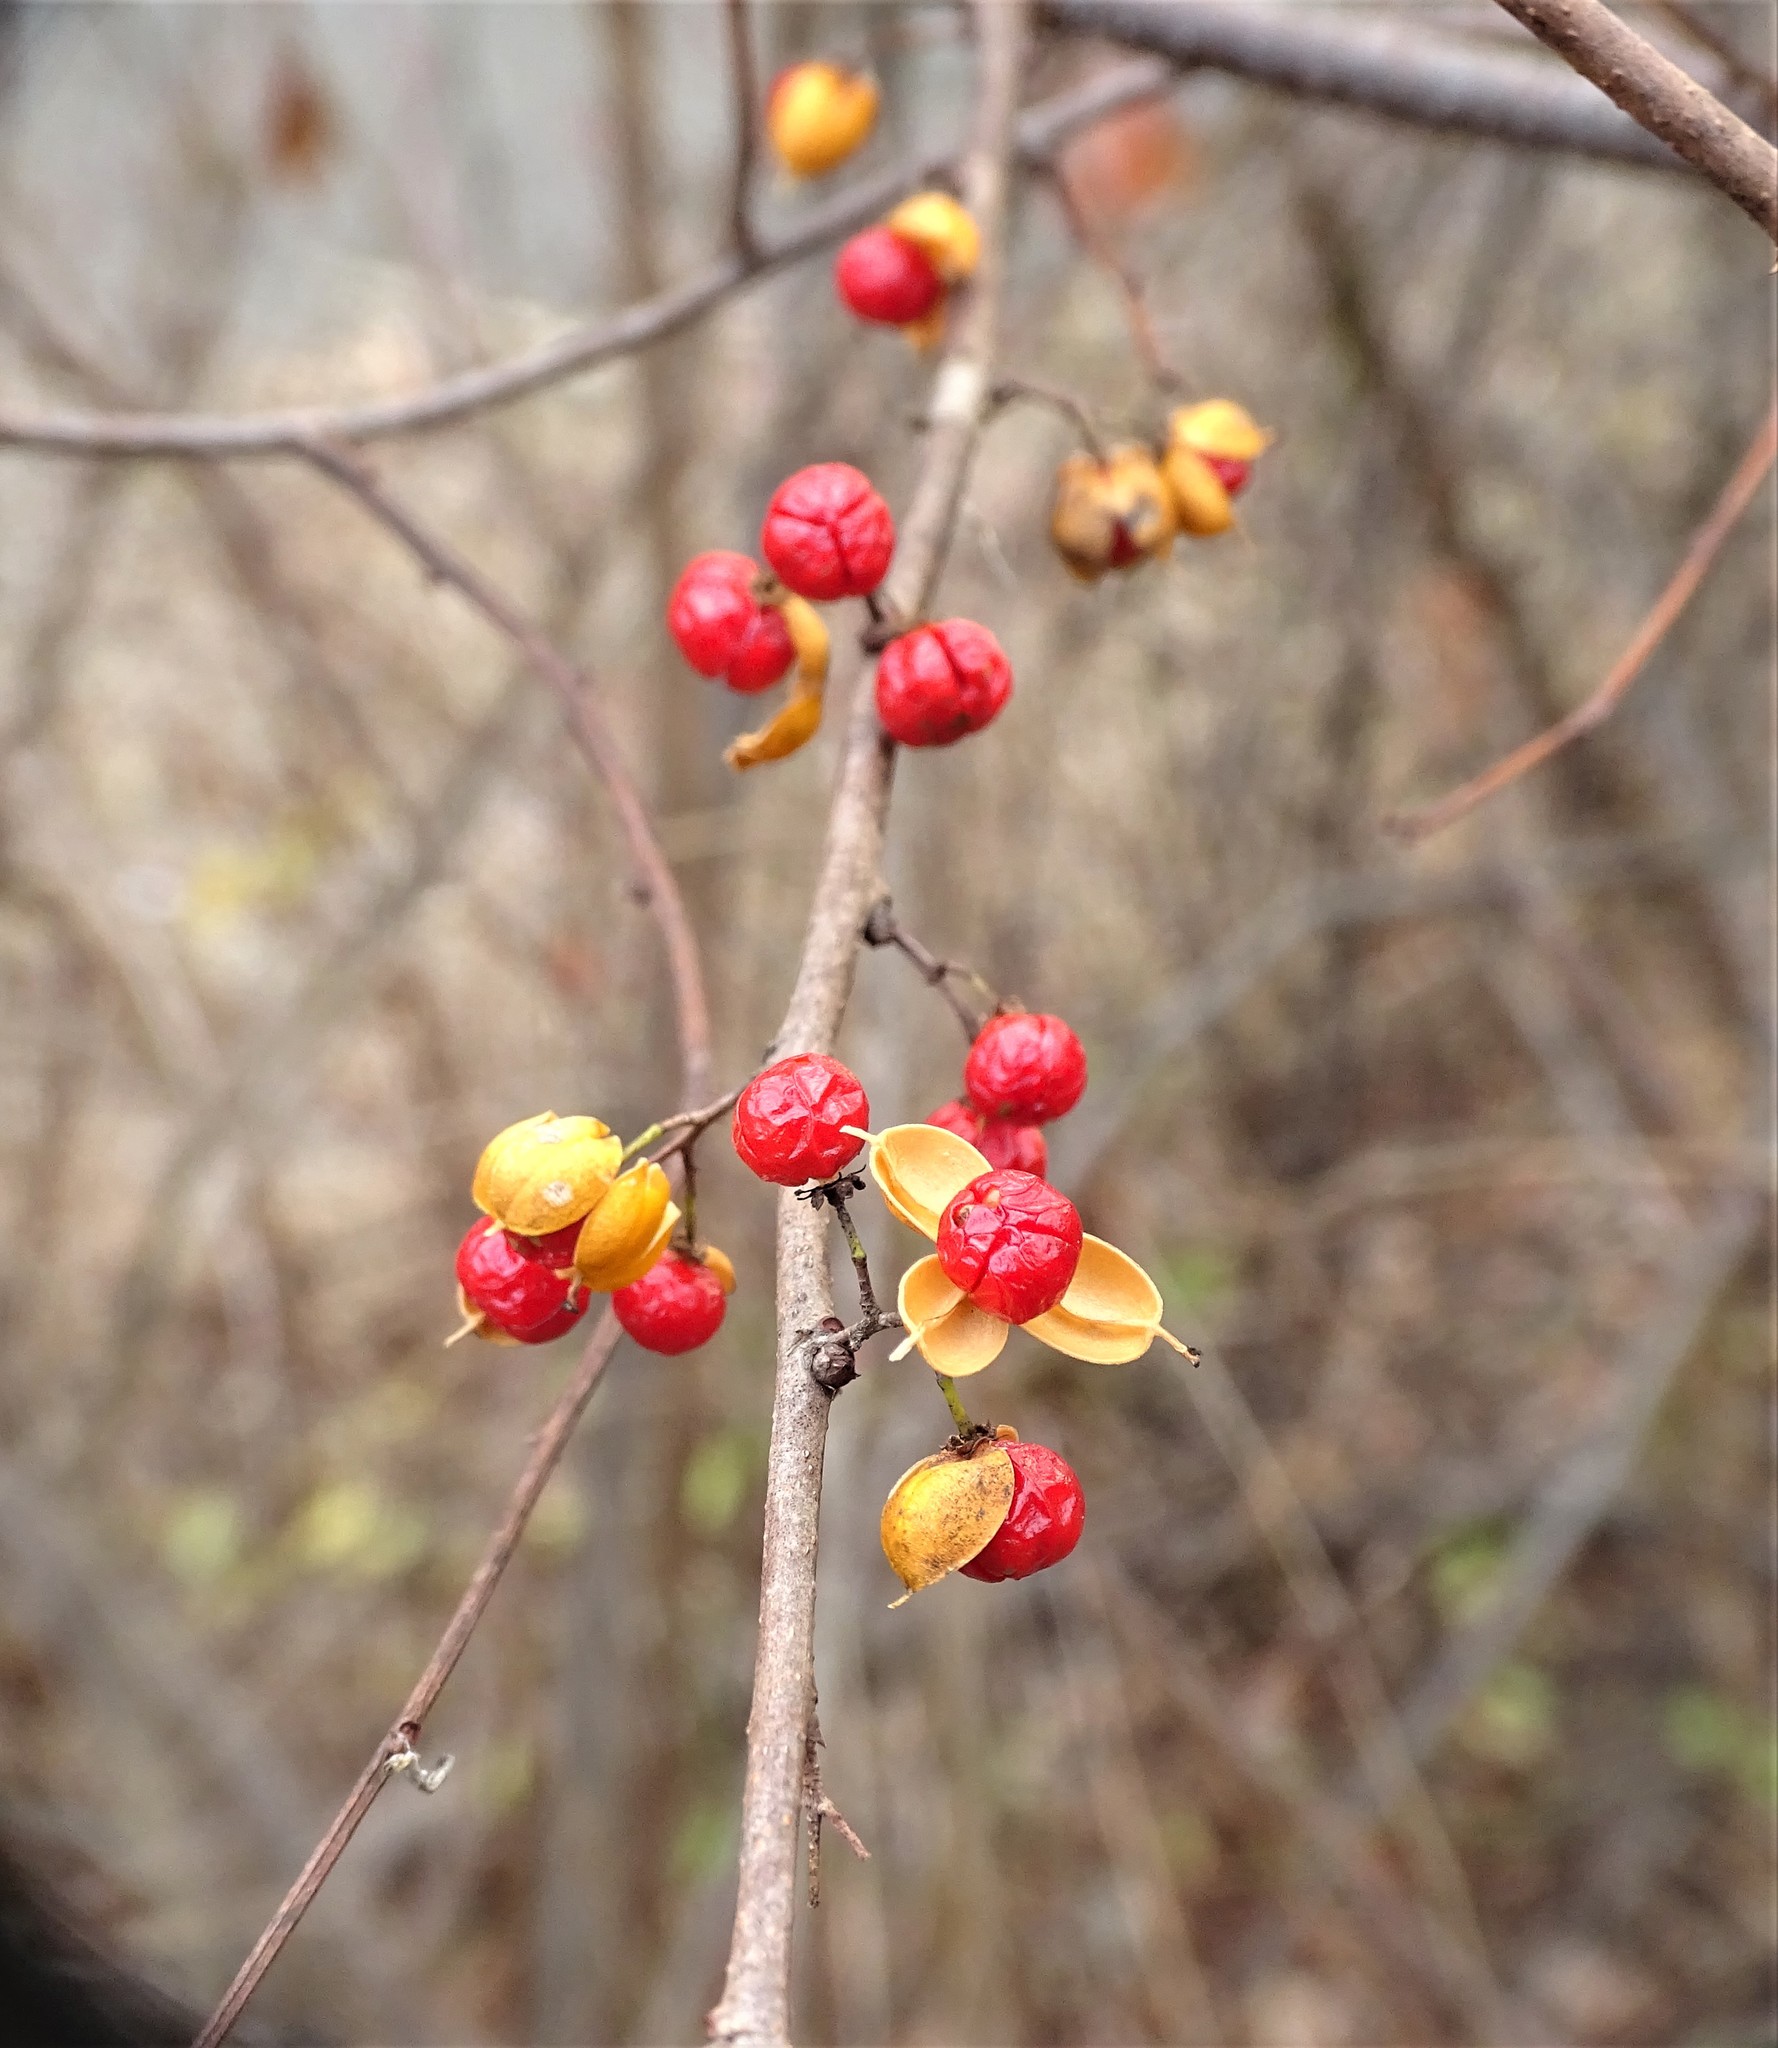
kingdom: Plantae
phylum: Tracheophyta
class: Magnoliopsida
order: Celastrales
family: Celastraceae
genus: Celastrus
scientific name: Celastrus orbiculatus
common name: Oriental bittersweet
